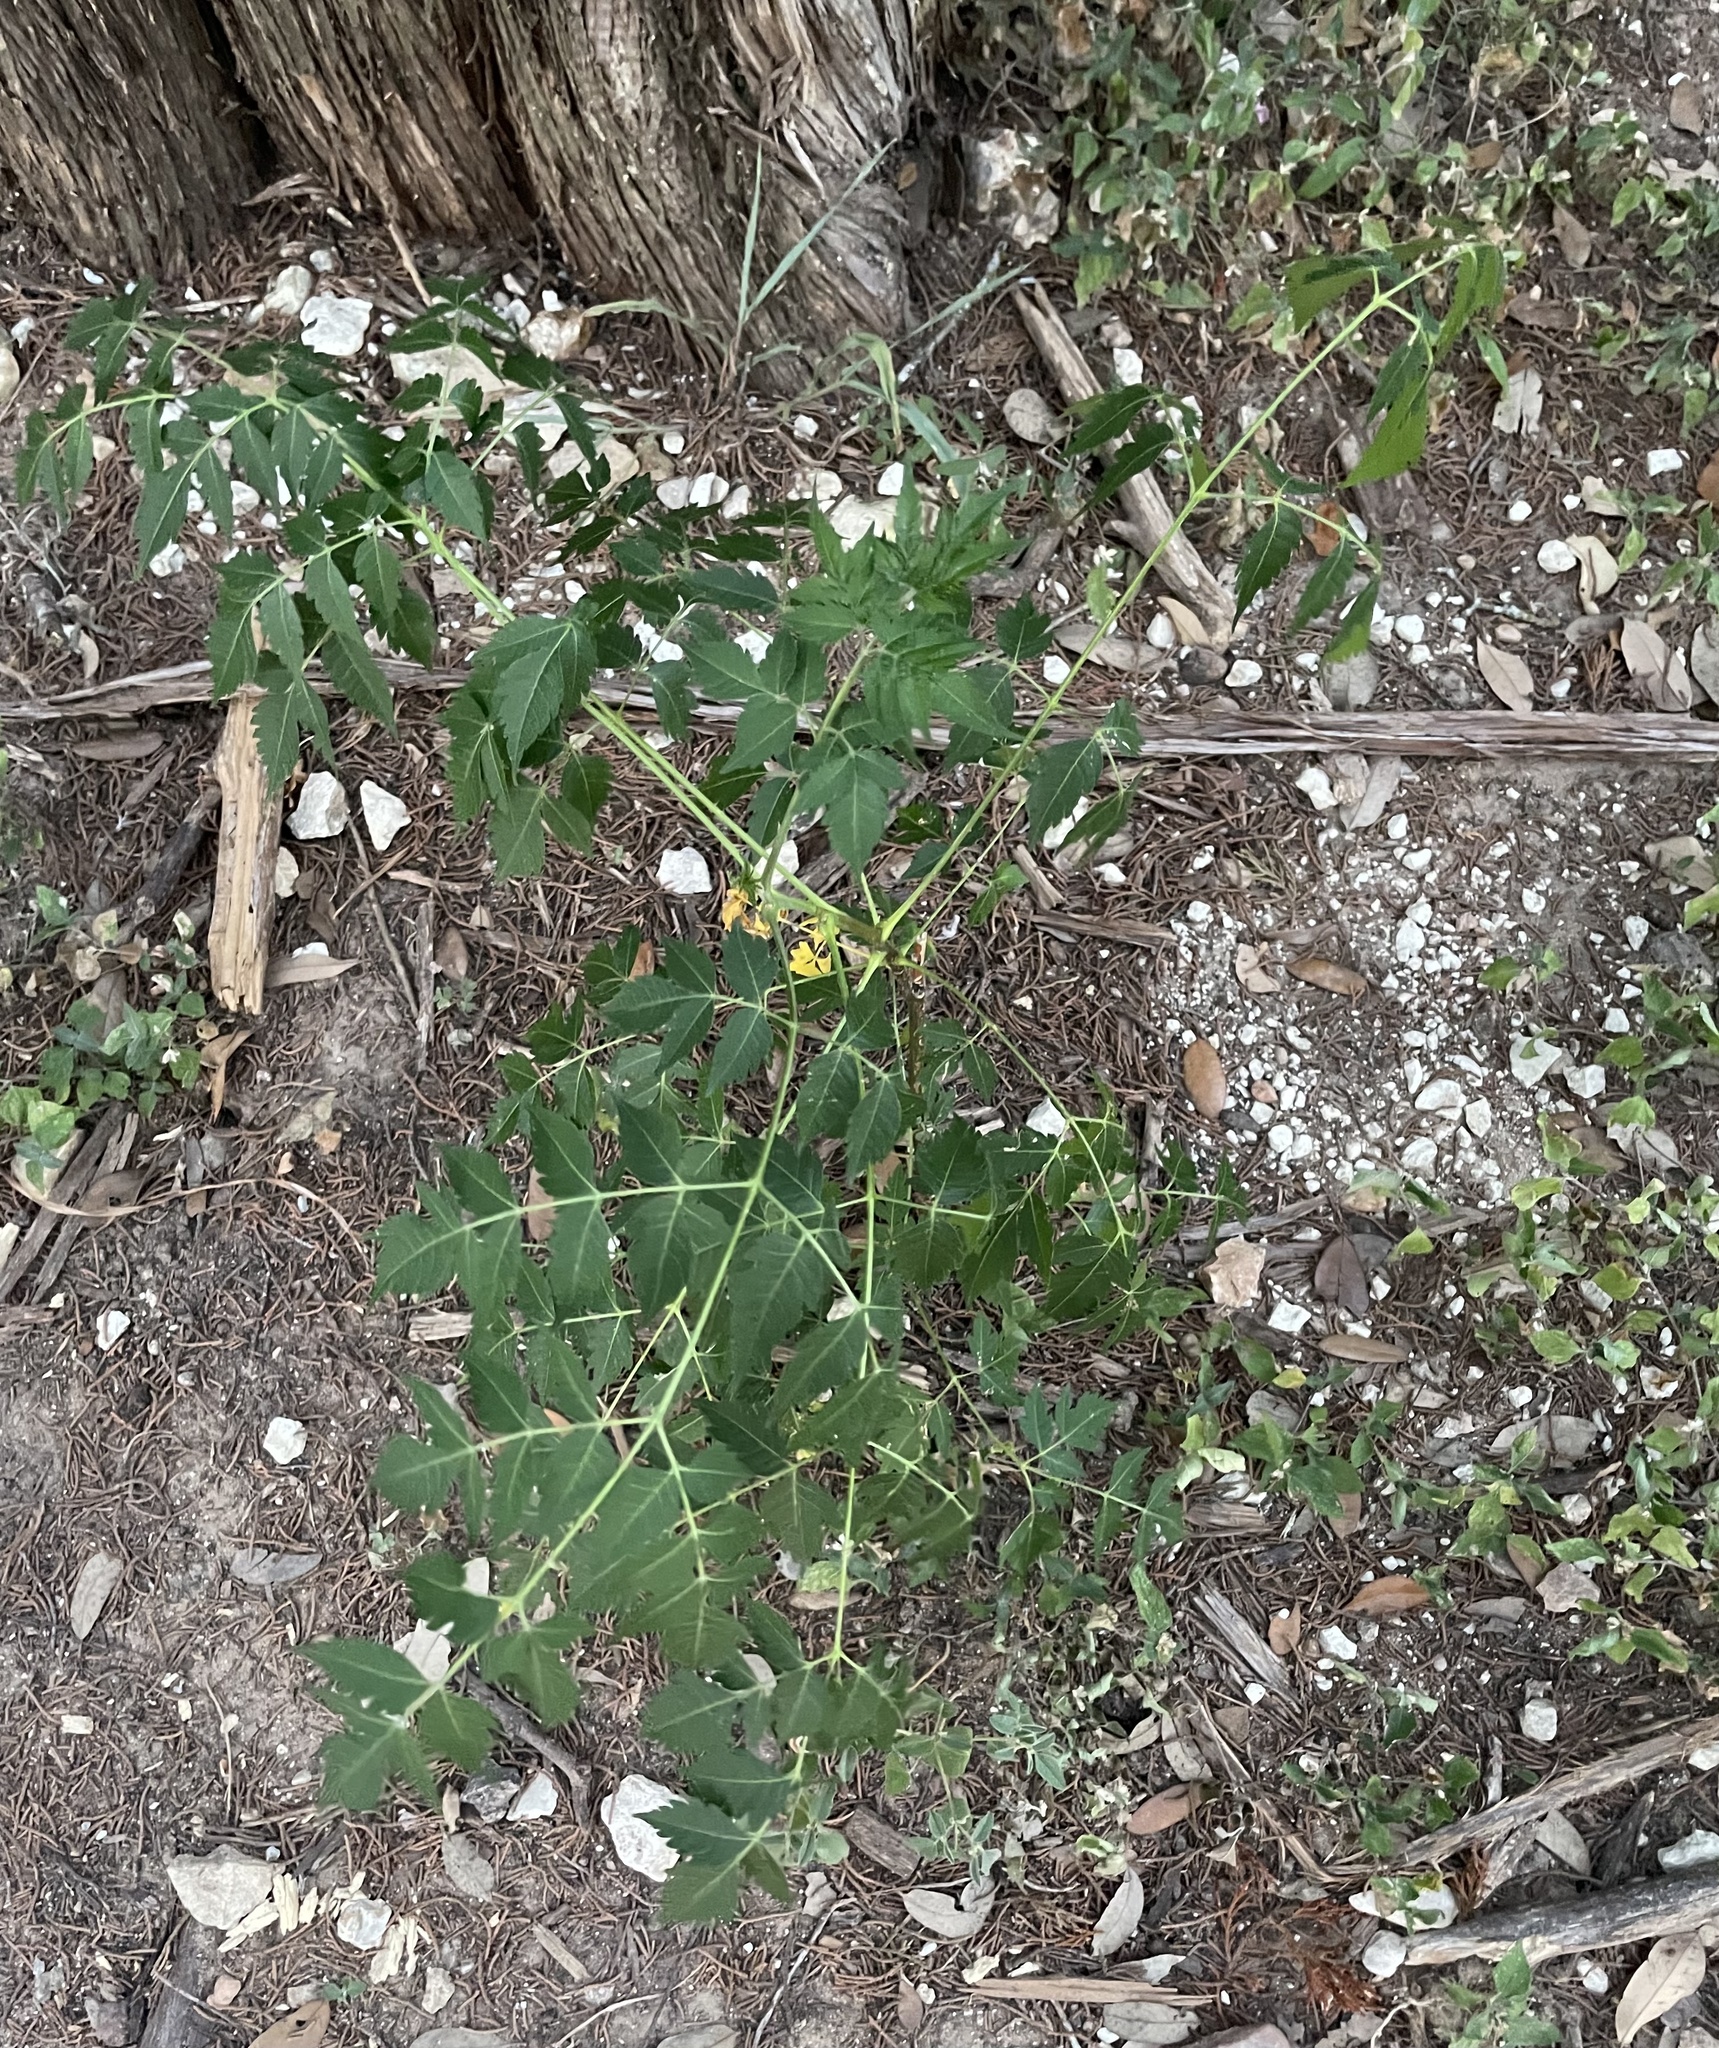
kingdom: Plantae
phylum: Tracheophyta
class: Magnoliopsida
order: Sapindales
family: Meliaceae
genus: Melia
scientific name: Melia azedarach
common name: Chinaberrytree
